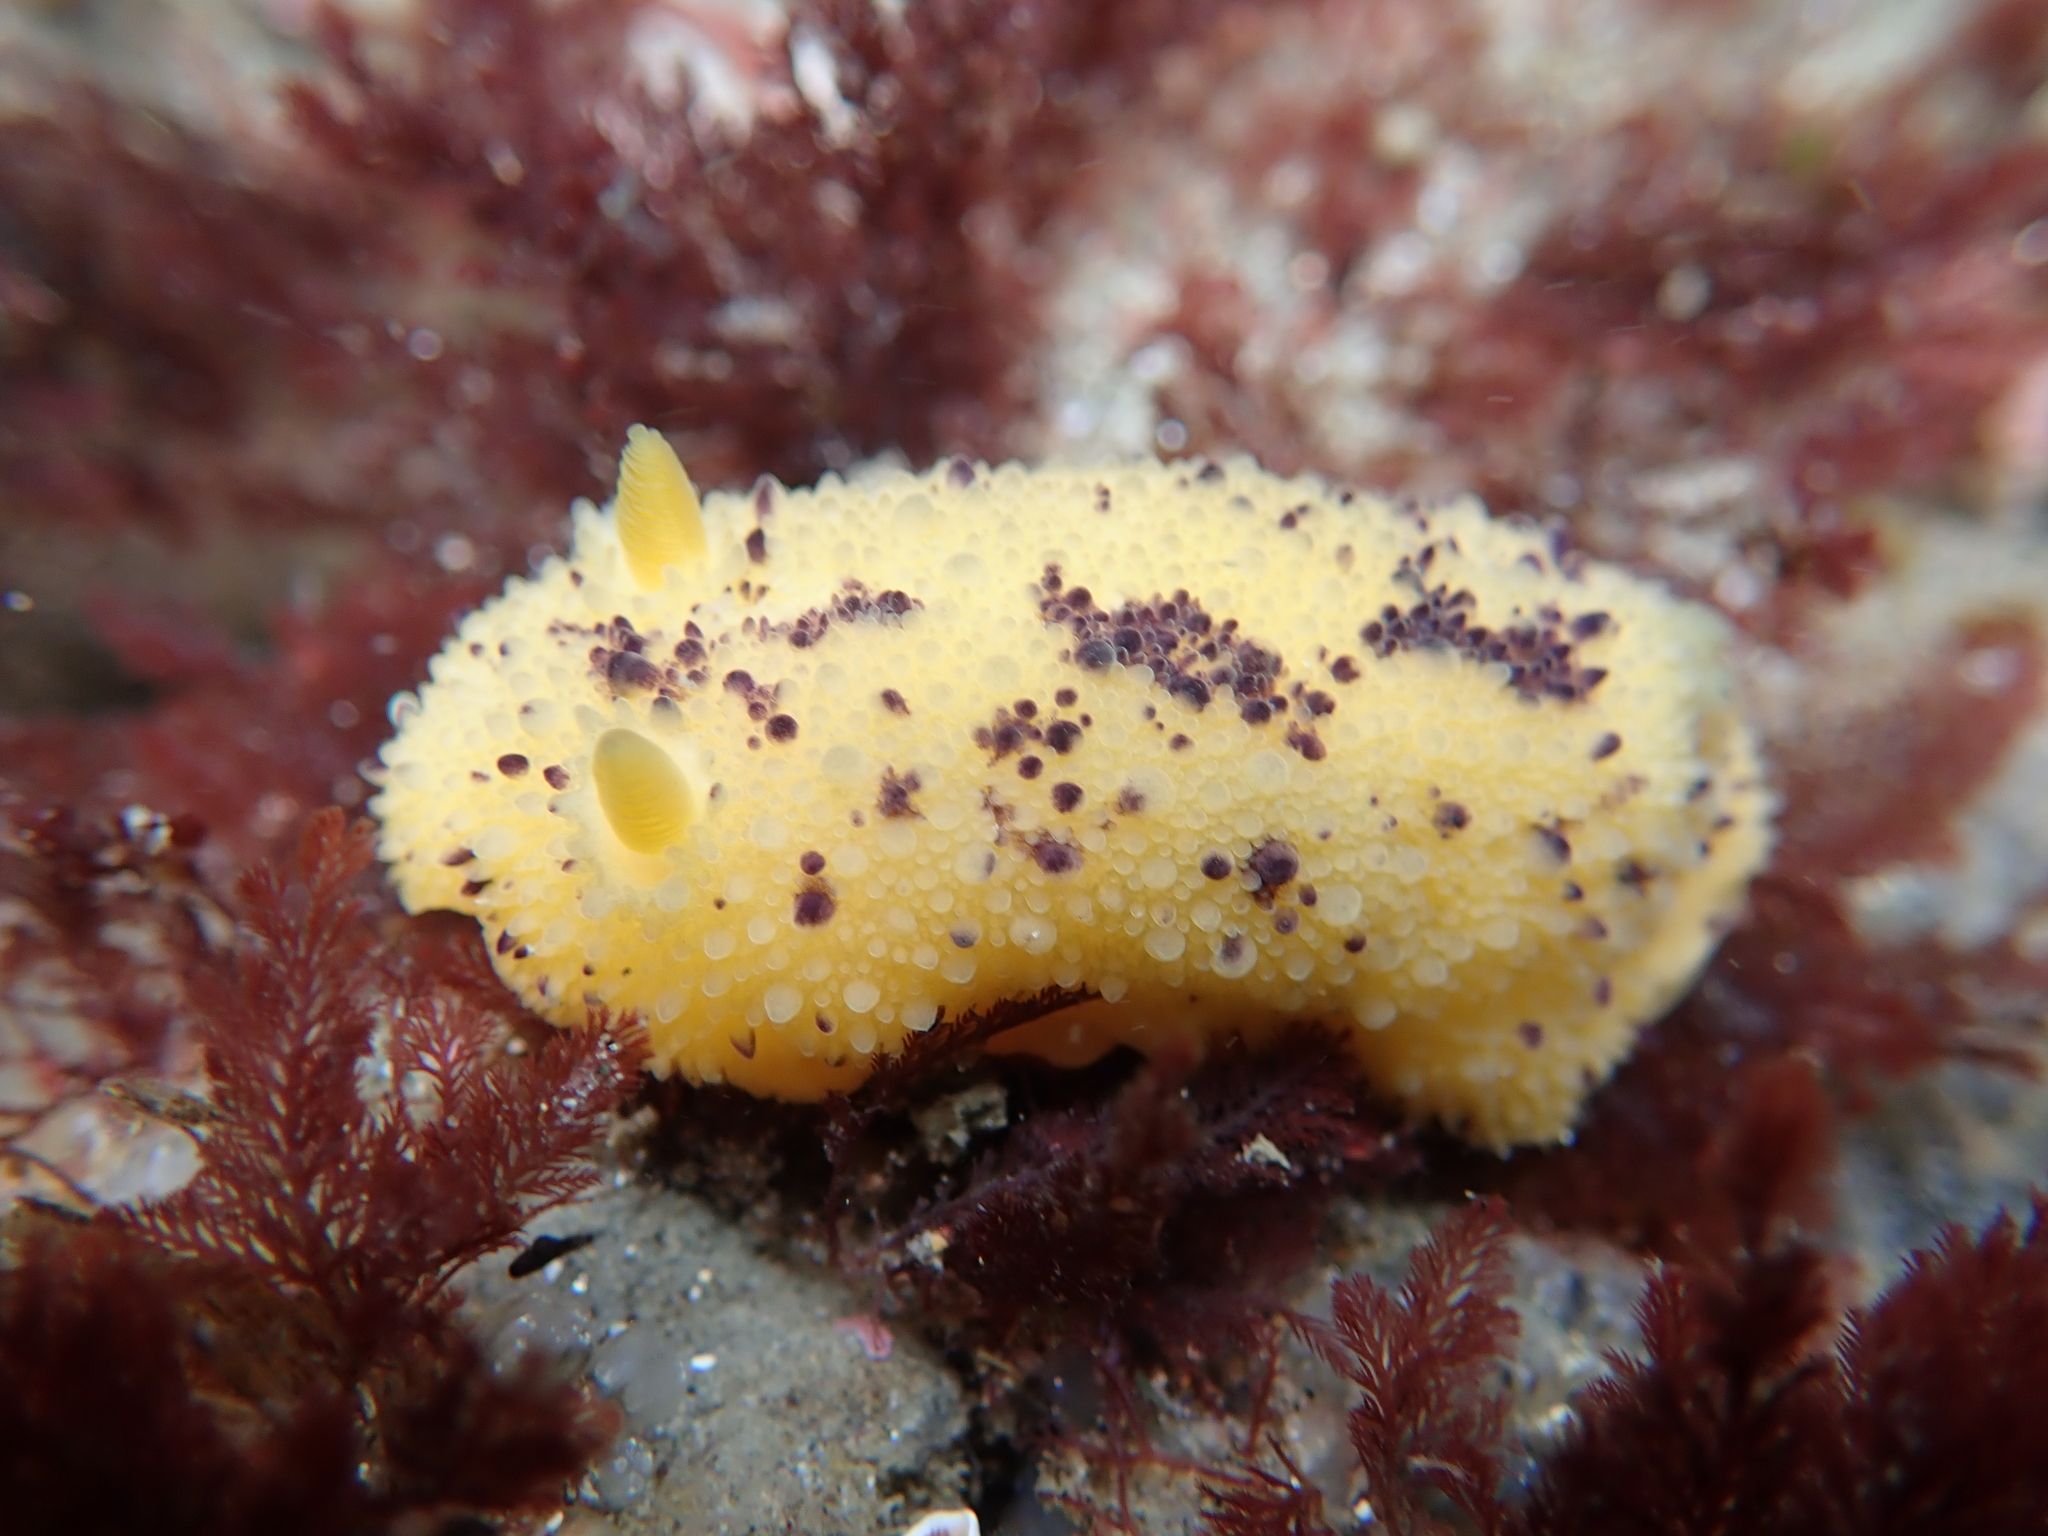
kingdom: Animalia
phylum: Mollusca
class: Gastropoda
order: Nudibranchia
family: Dorididae
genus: Doris
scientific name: Doris montereyensis
